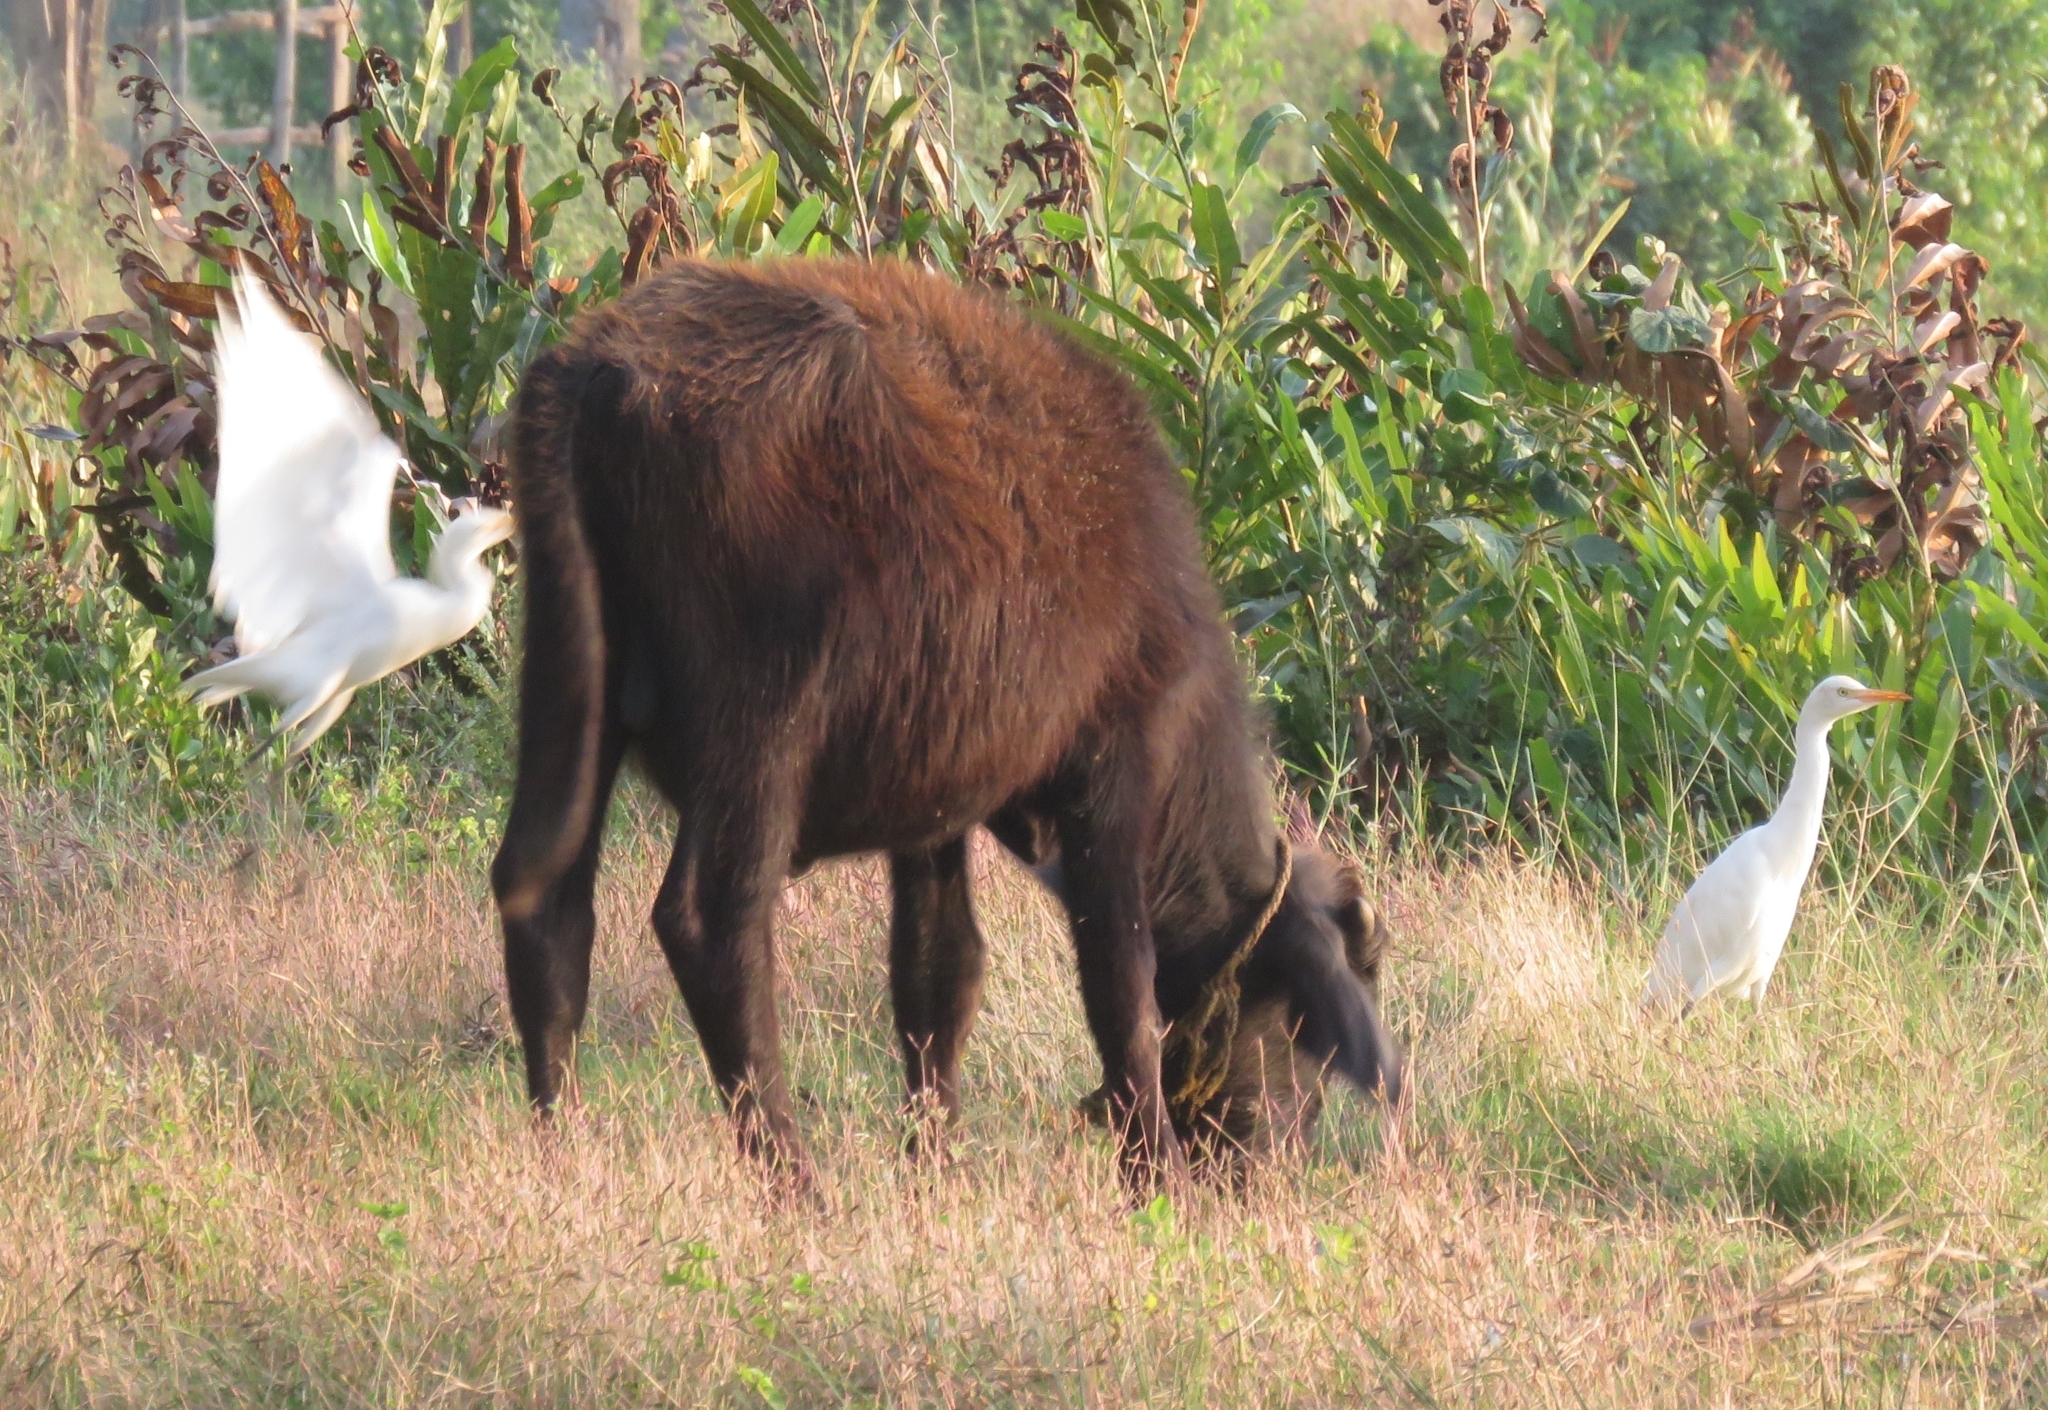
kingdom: Animalia
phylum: Chordata
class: Aves
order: Pelecaniformes
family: Ardeidae
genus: Bubulcus
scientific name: Bubulcus coromandus
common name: Eastern cattle egret
